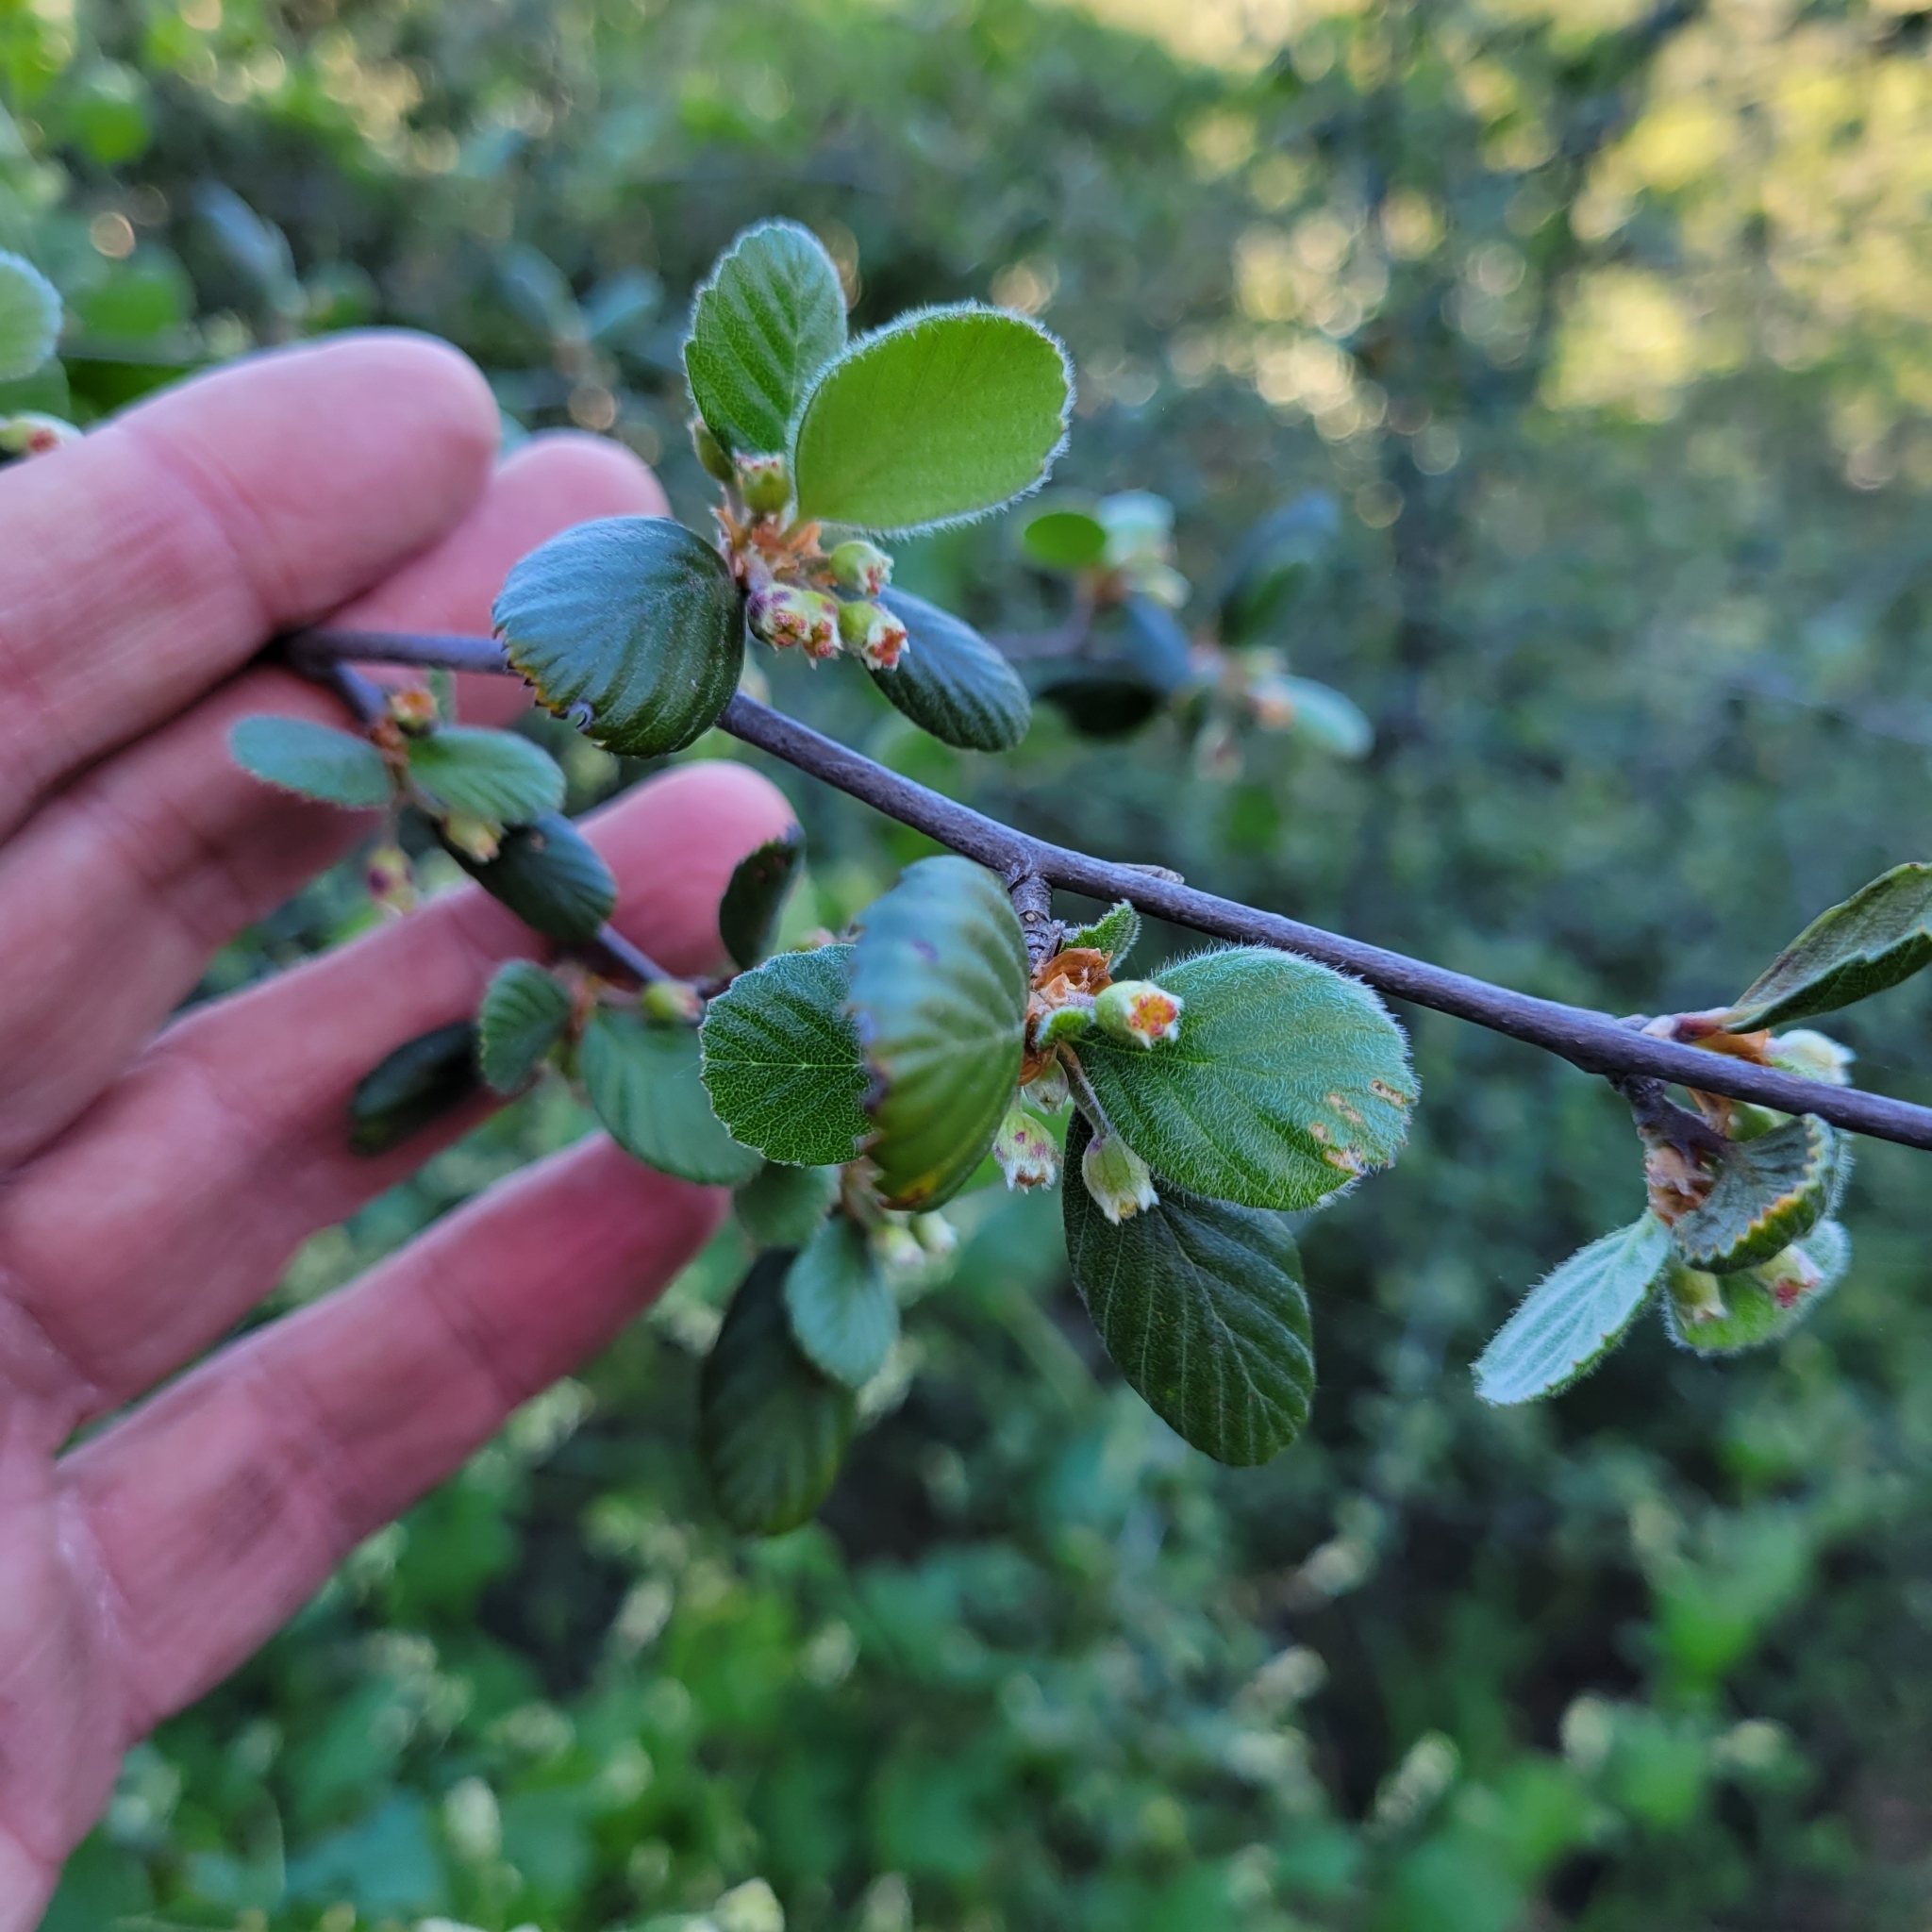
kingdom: Plantae
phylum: Tracheophyta
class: Magnoliopsida
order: Rosales
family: Rosaceae
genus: Cercocarpus
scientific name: Cercocarpus betuloides
